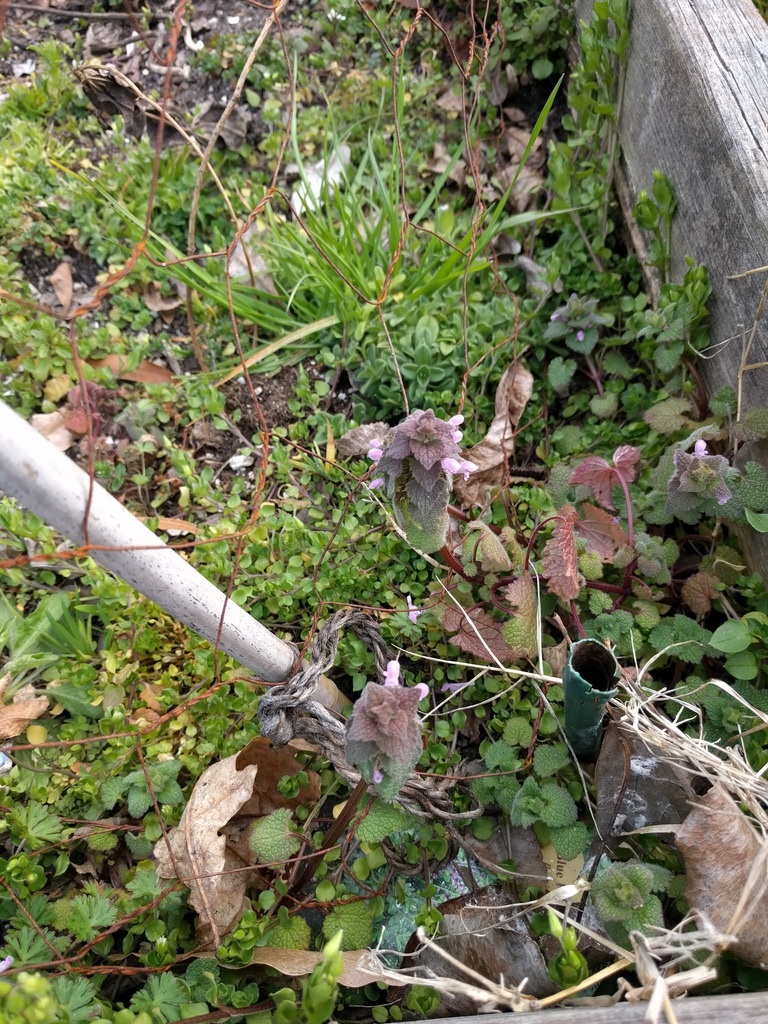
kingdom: Plantae
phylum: Tracheophyta
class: Magnoliopsida
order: Lamiales
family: Lamiaceae
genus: Lamium
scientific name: Lamium purpureum
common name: Red dead-nettle
